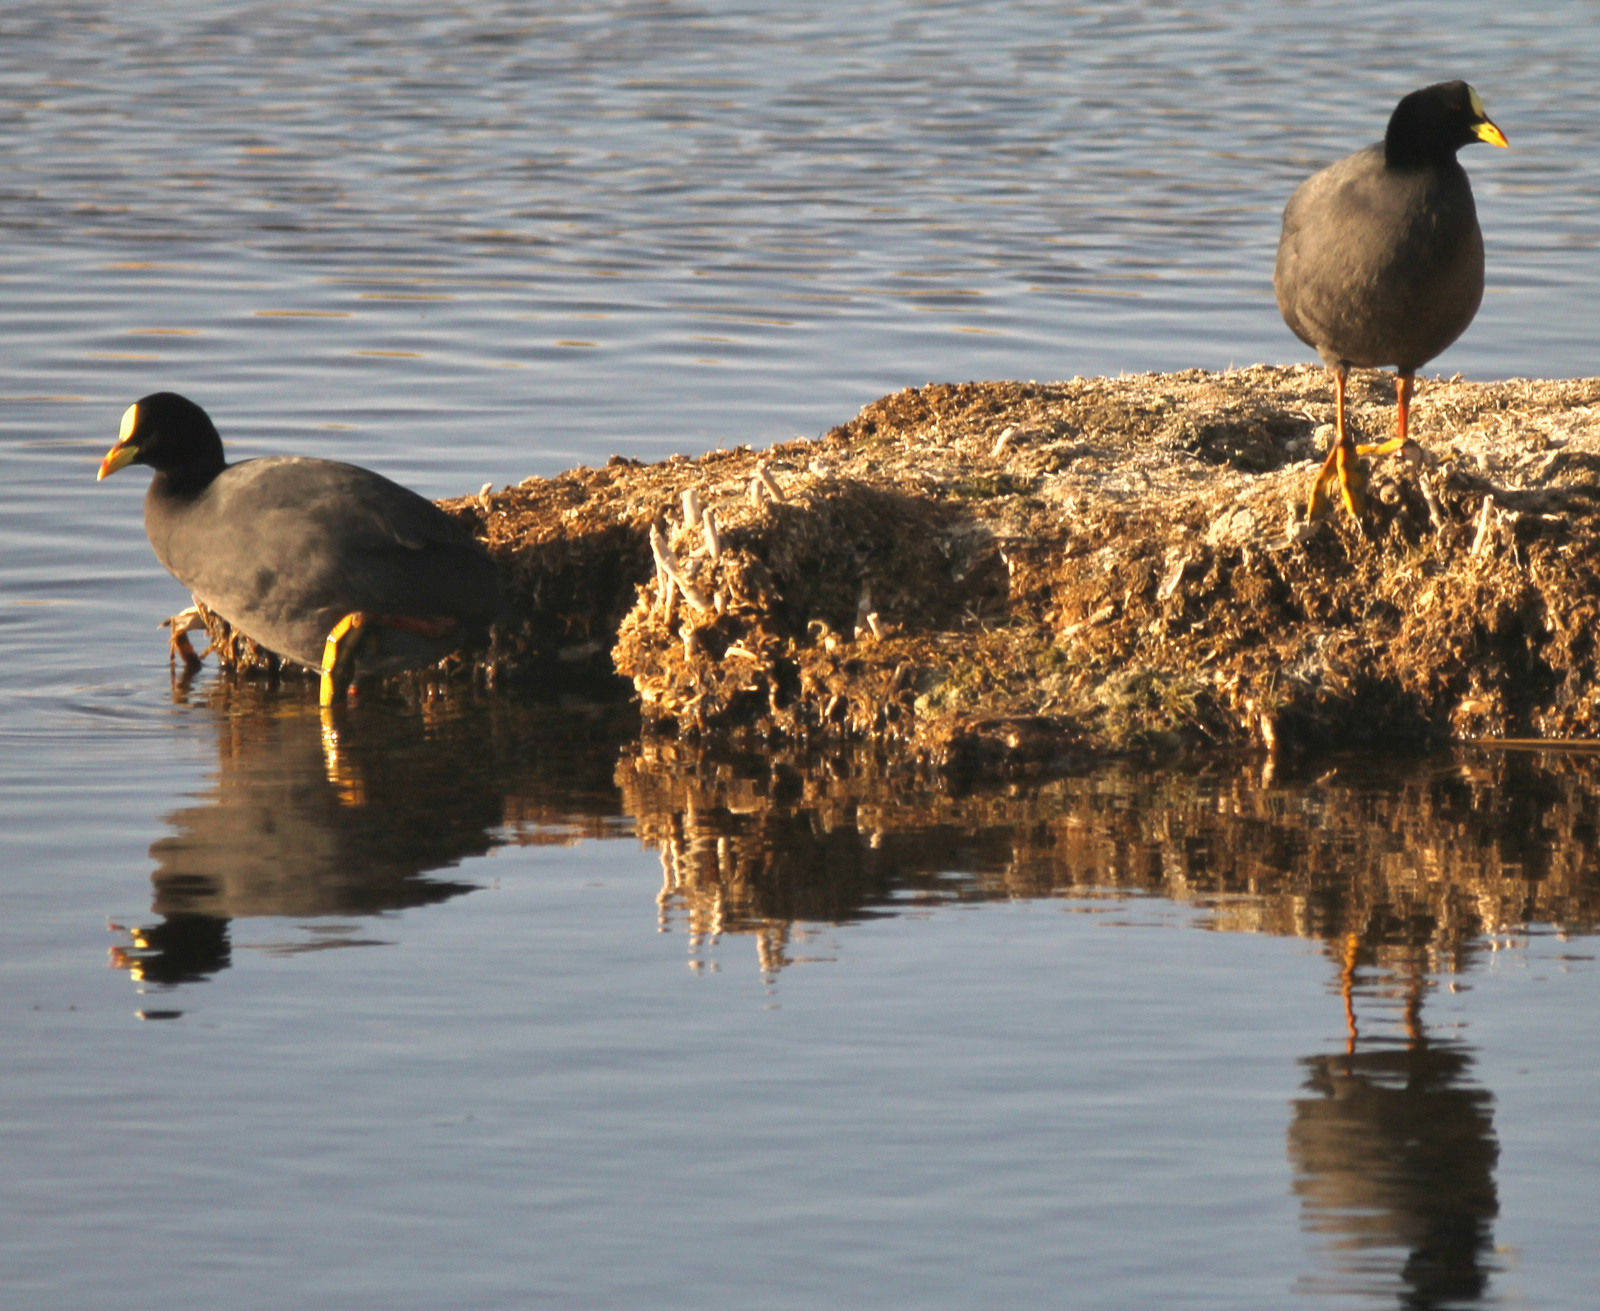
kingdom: Animalia
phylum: Chordata
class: Aves
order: Gruiformes
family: Rallidae
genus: Fulica
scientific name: Fulica armillata
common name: Red-gartered coot
